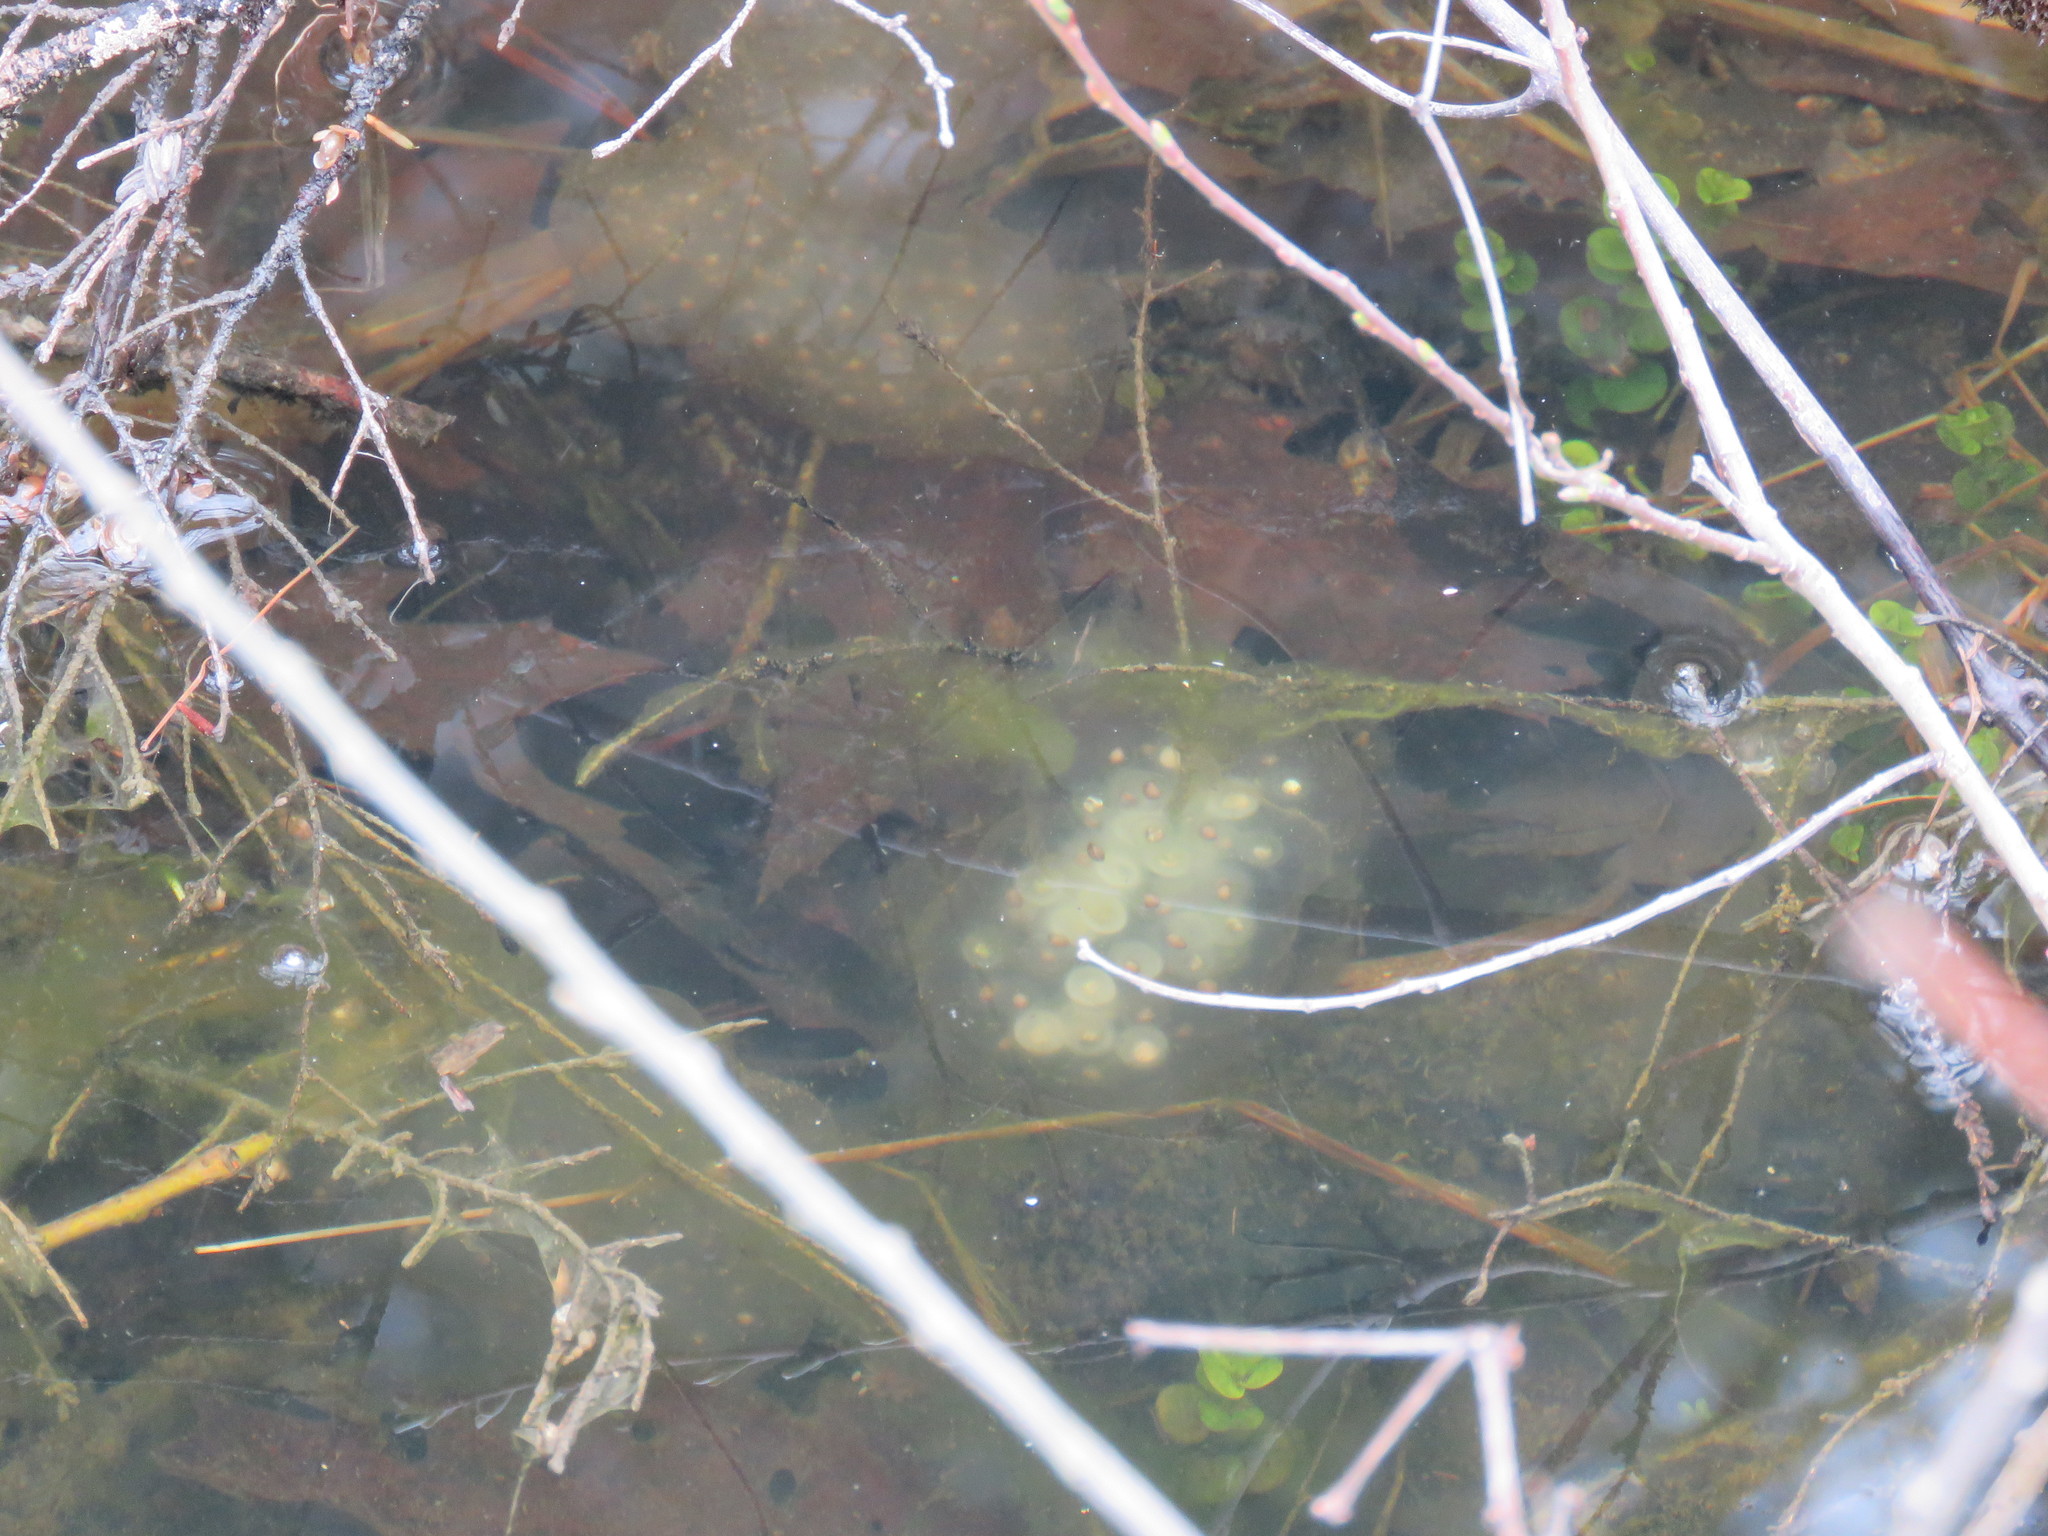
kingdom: Animalia
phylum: Chordata
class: Amphibia
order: Caudata
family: Ambystomatidae
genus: Ambystoma
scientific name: Ambystoma maculatum
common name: Spotted salamander
